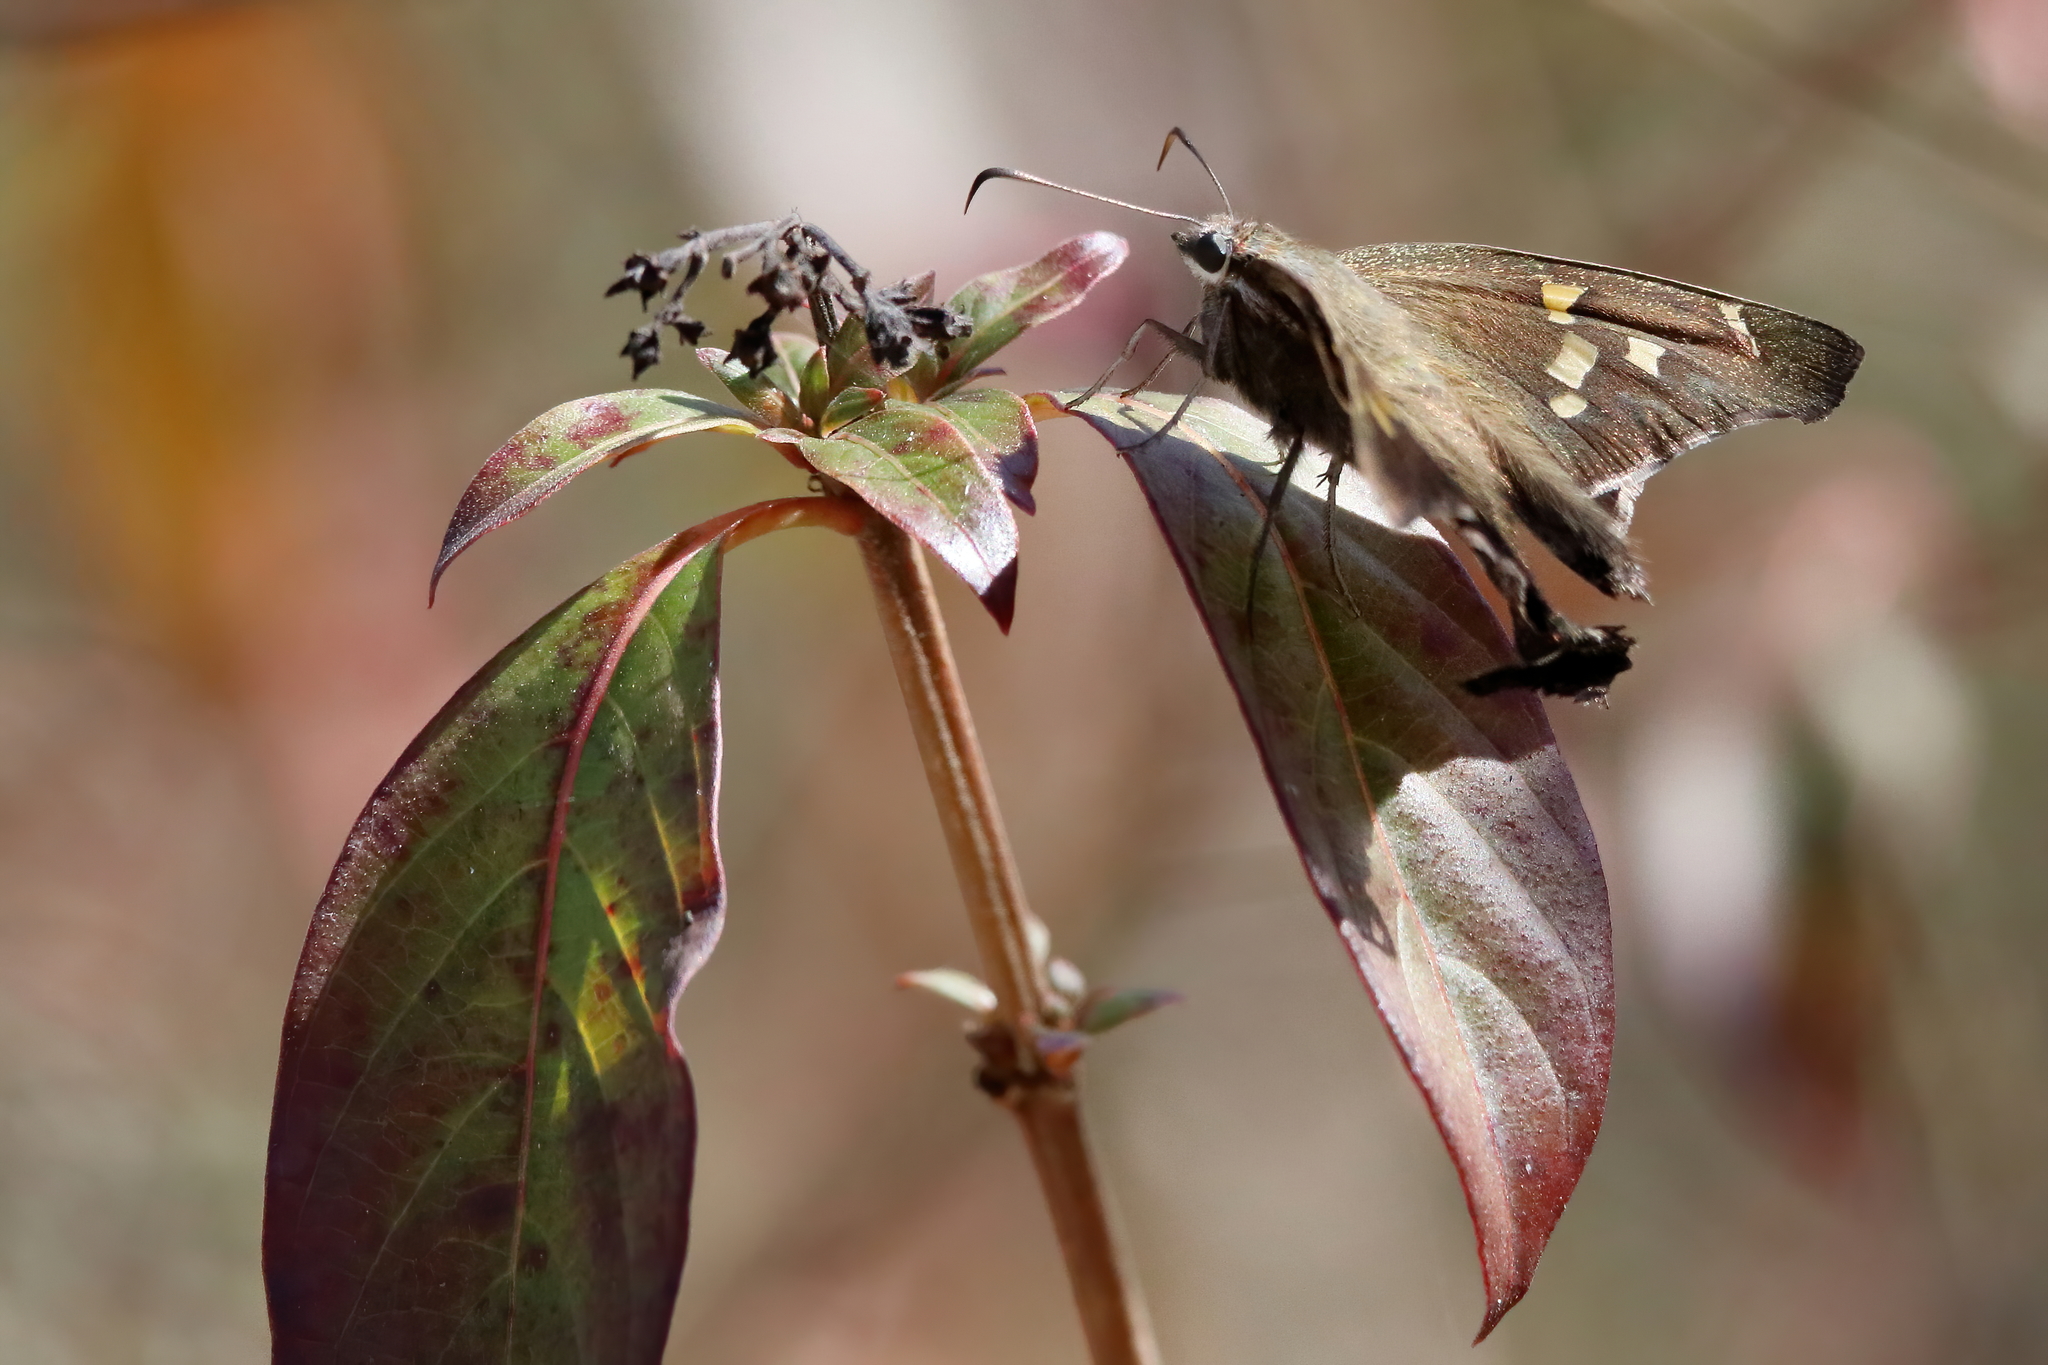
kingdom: Animalia
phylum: Arthropoda
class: Insecta
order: Lepidoptera
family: Hesperiidae
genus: Chioides
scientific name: Chioides catillus
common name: Silverbanded skipper
